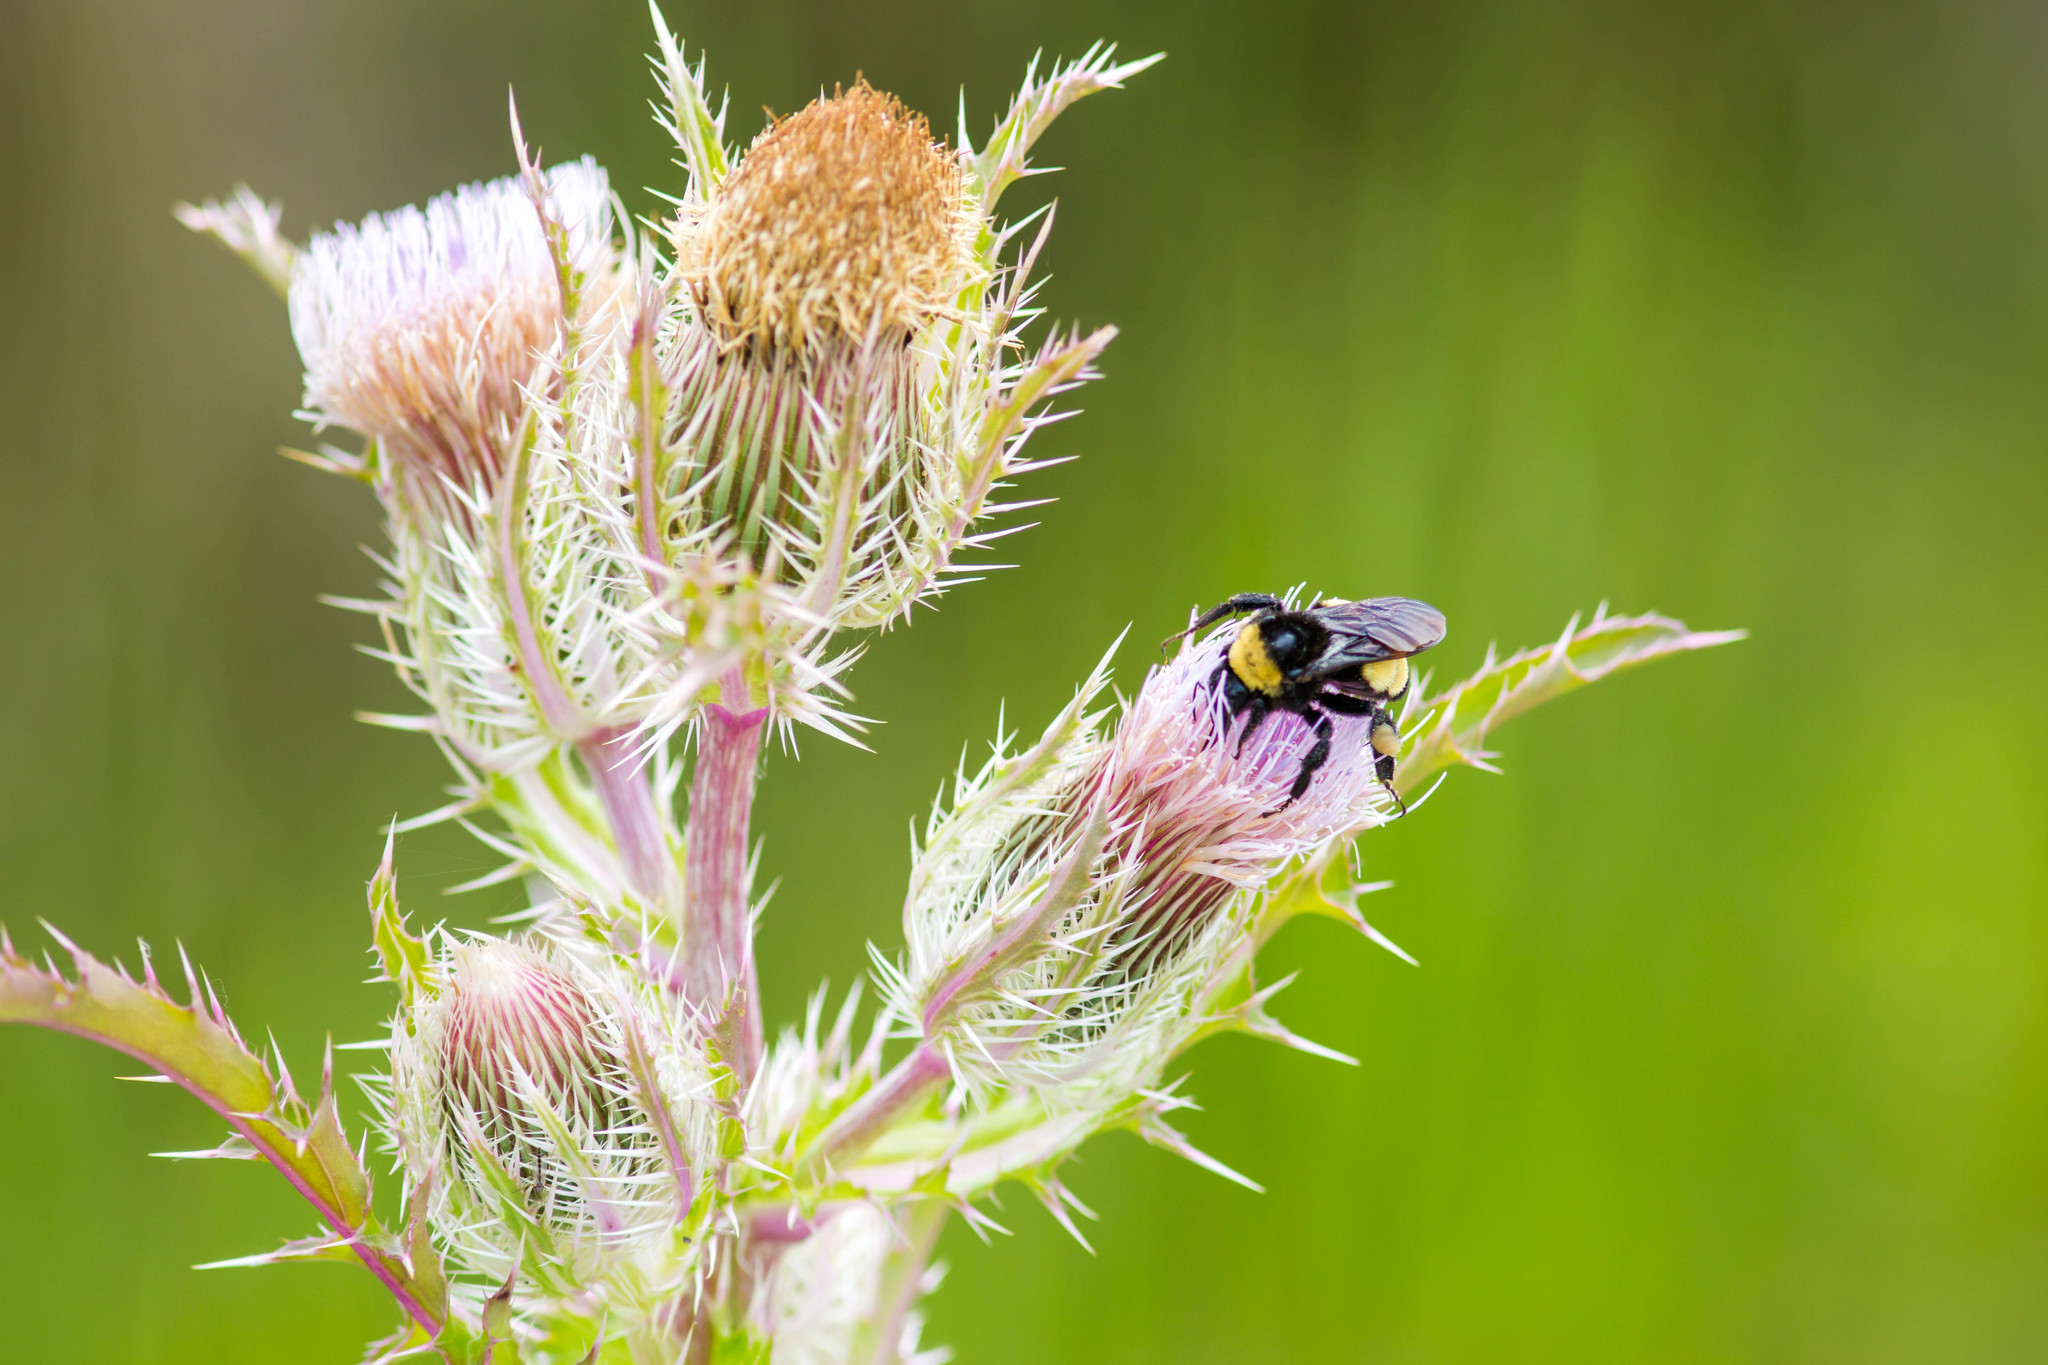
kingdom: Animalia
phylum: Arthropoda
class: Insecta
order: Hymenoptera
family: Apidae
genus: Bombus
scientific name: Bombus pensylvanicus
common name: Bumble bee
